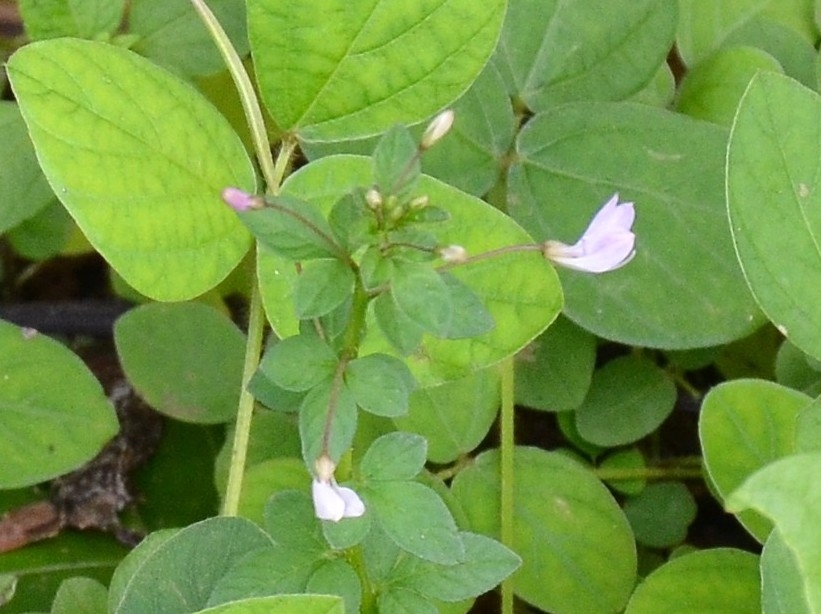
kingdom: Plantae
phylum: Tracheophyta
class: Magnoliopsida
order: Brassicales
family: Cleomaceae
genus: Sieruela
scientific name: Sieruela rutidosperma
